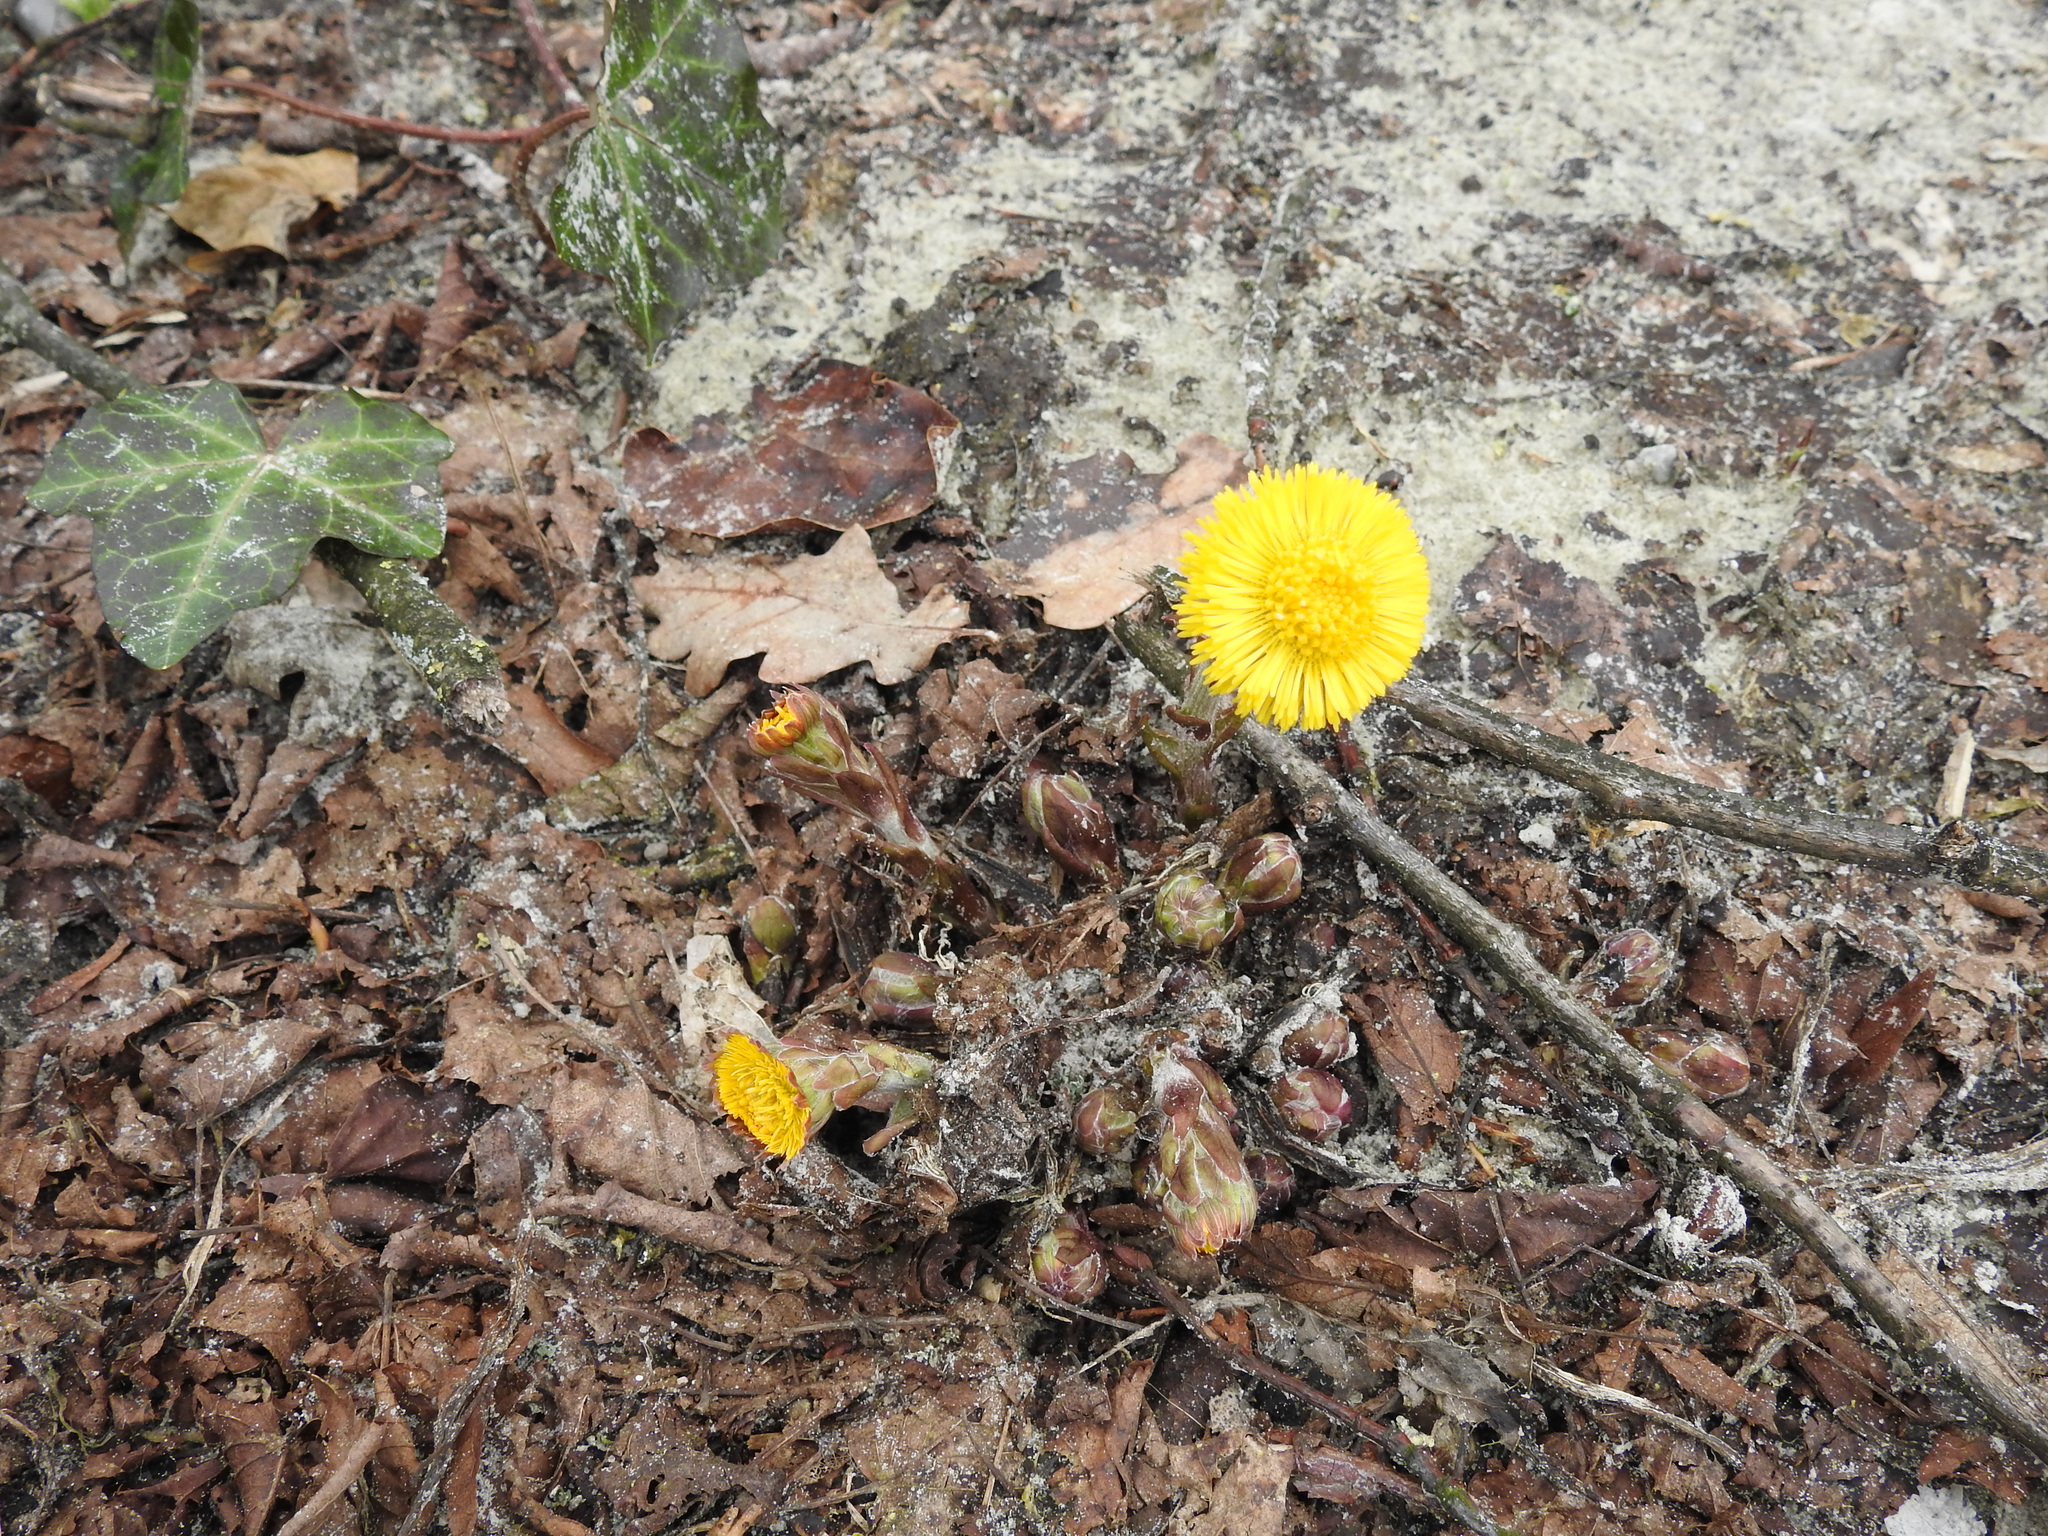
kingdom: Plantae
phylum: Tracheophyta
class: Magnoliopsida
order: Asterales
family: Asteraceae
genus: Tussilago
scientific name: Tussilago farfara
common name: Coltsfoot
